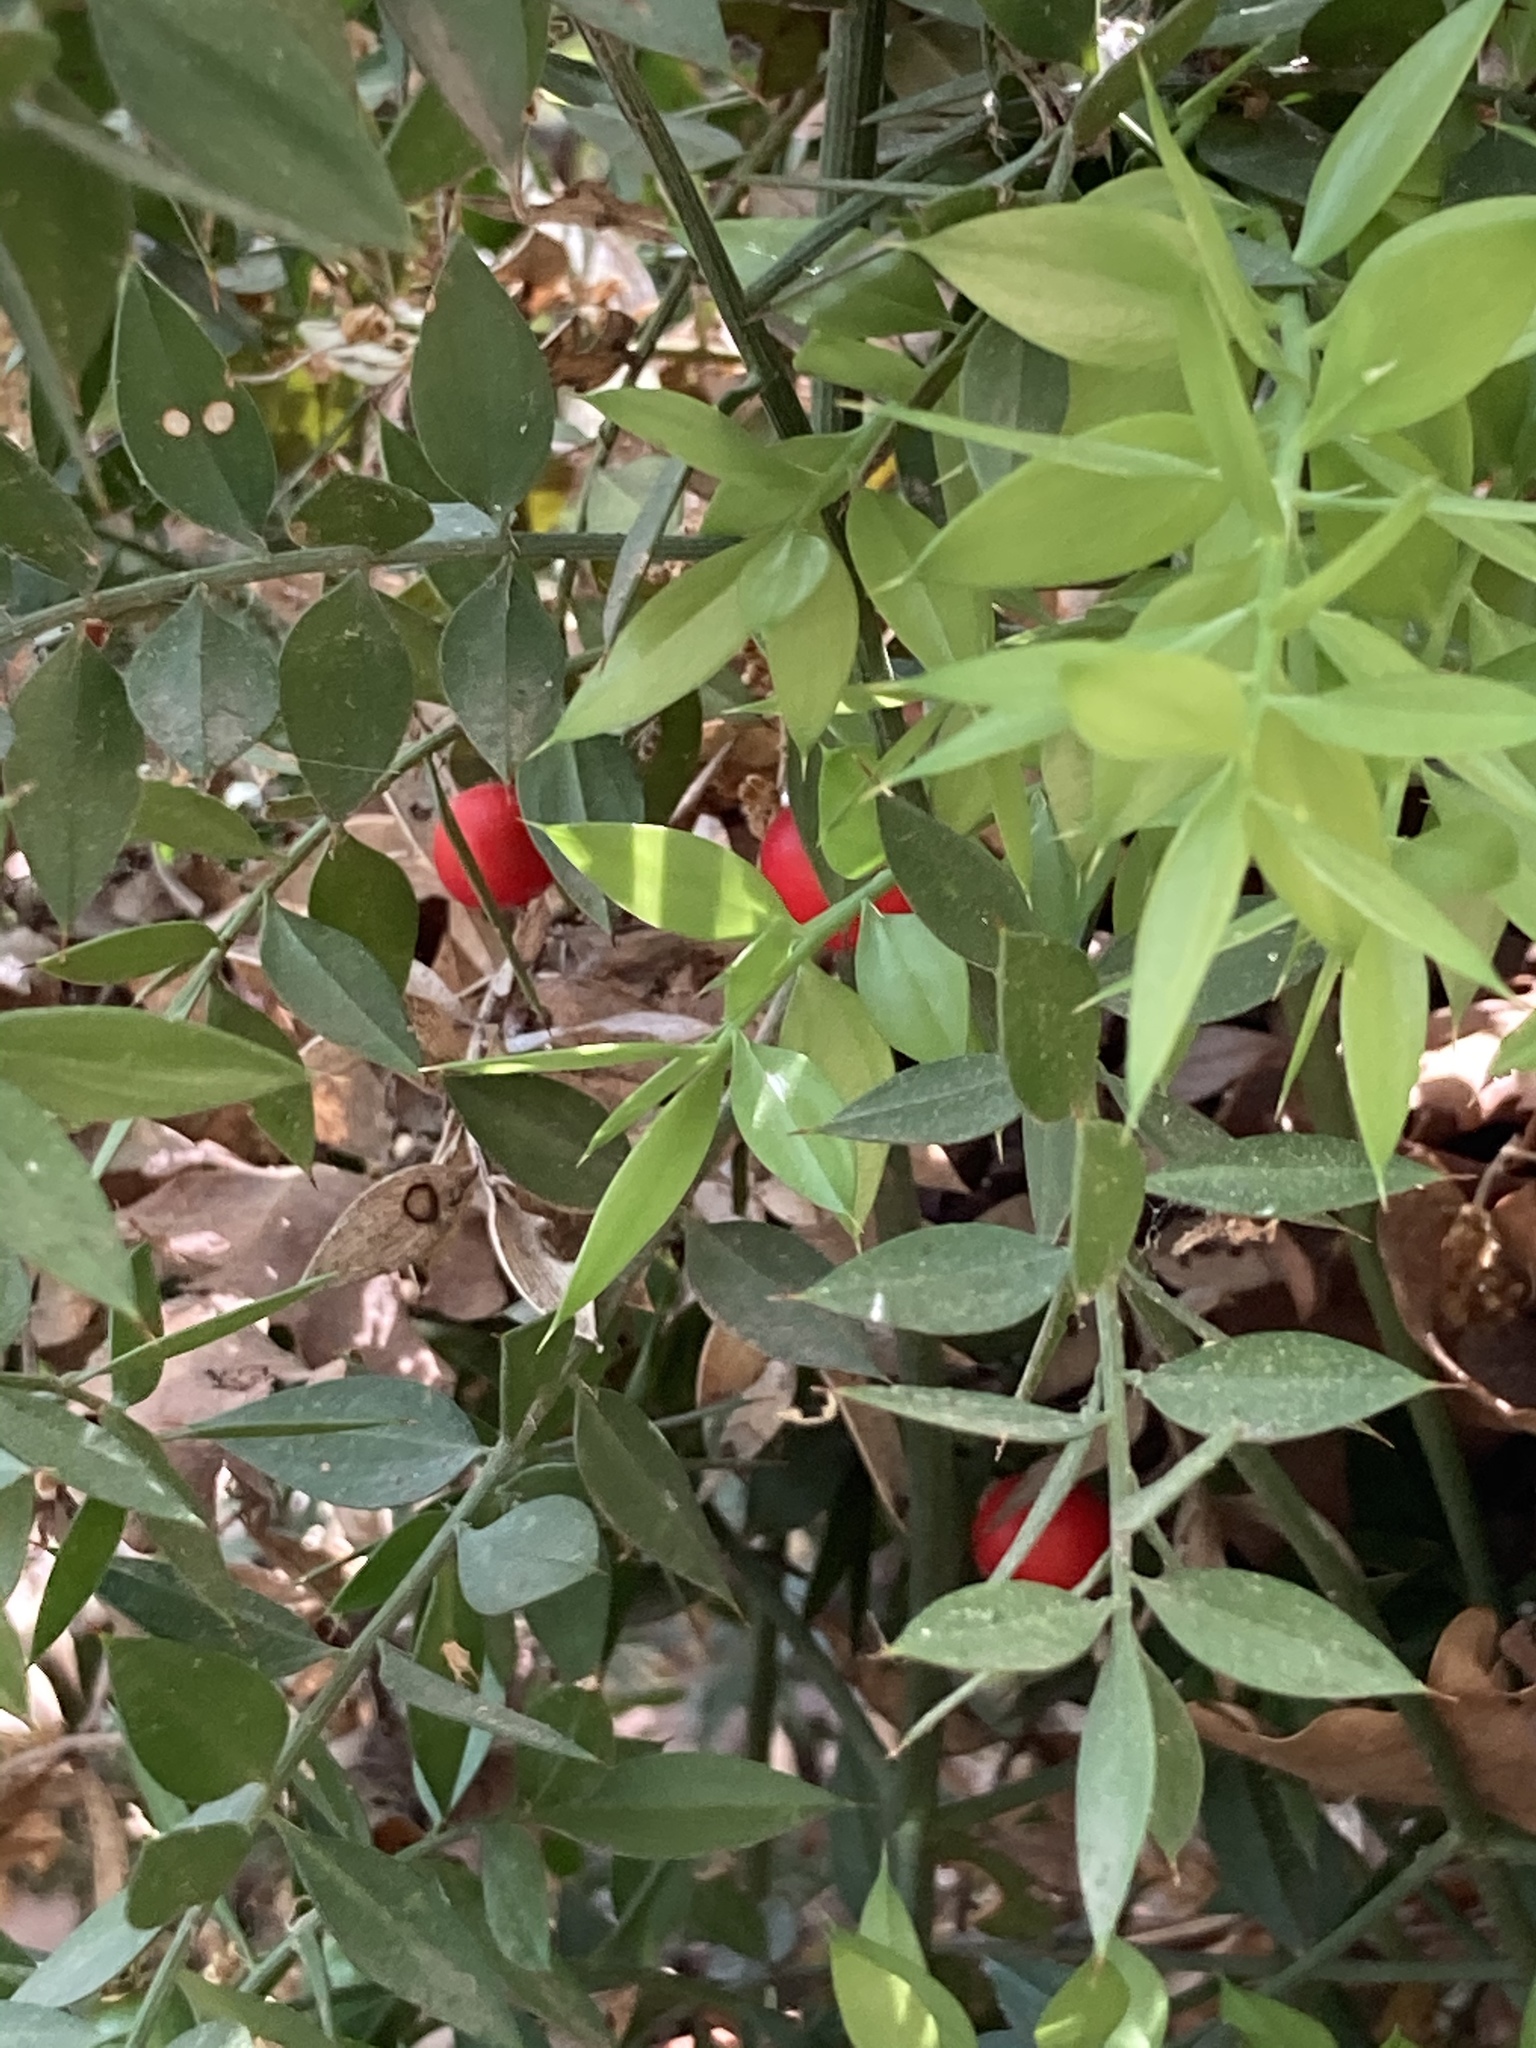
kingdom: Plantae
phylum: Tracheophyta
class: Liliopsida
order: Asparagales
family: Asparagaceae
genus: Ruscus
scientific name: Ruscus aculeatus
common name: Butcher's-broom
